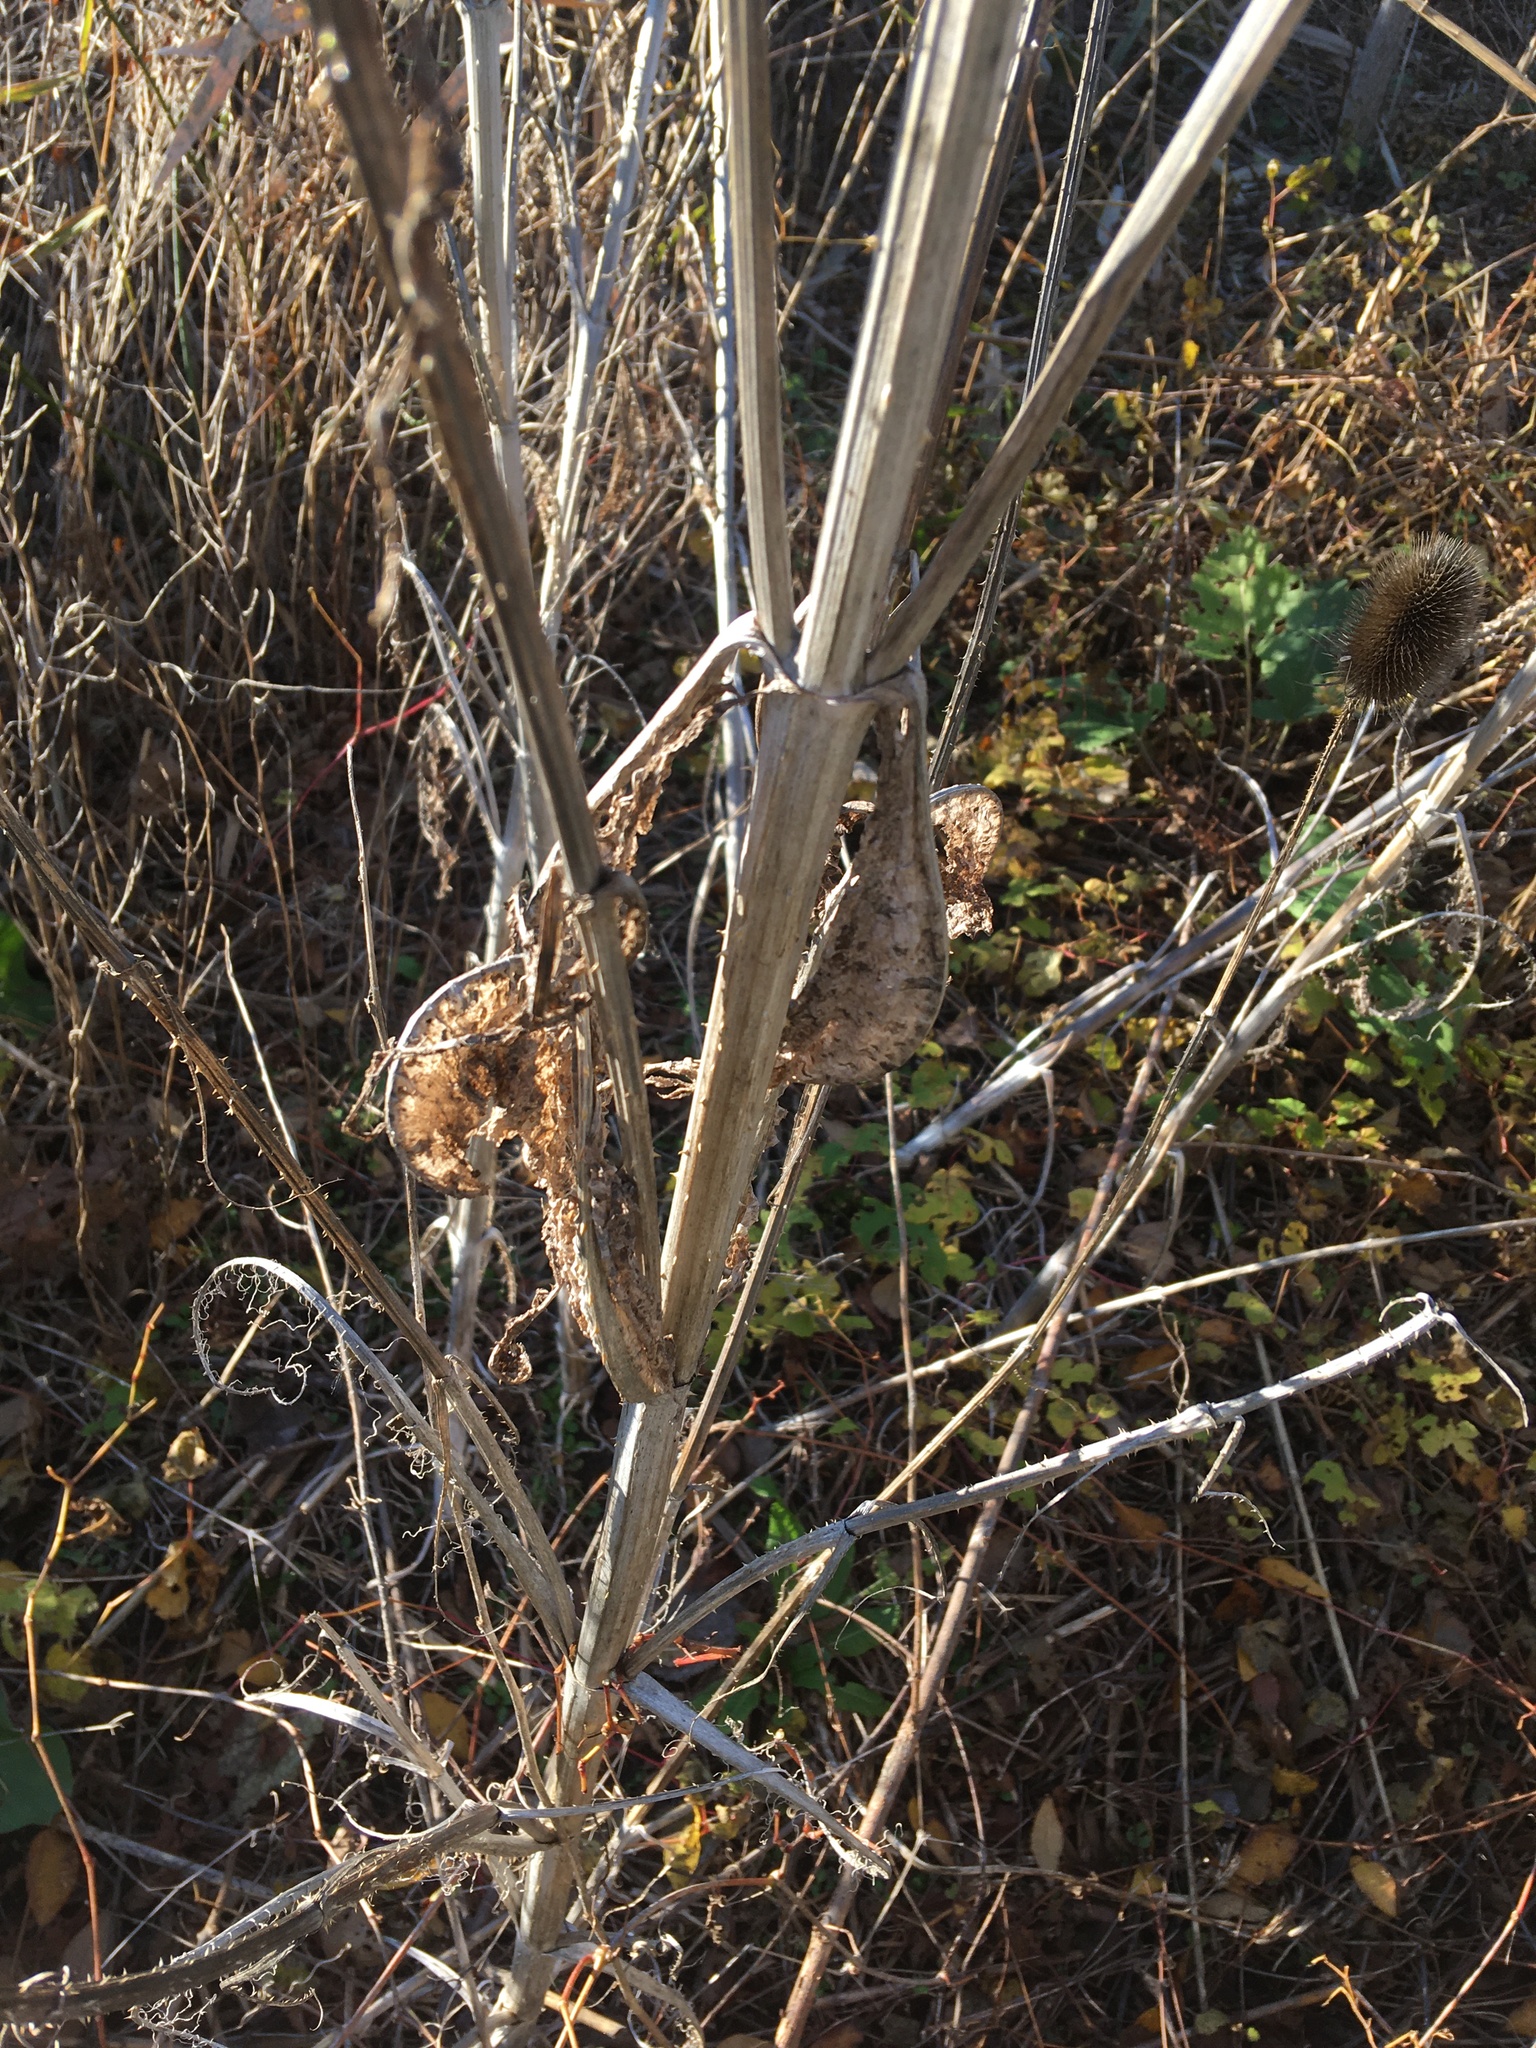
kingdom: Plantae
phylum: Tracheophyta
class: Magnoliopsida
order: Dipsacales
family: Caprifoliaceae
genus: Dipsacus
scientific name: Dipsacus fullonum
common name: Teasel
